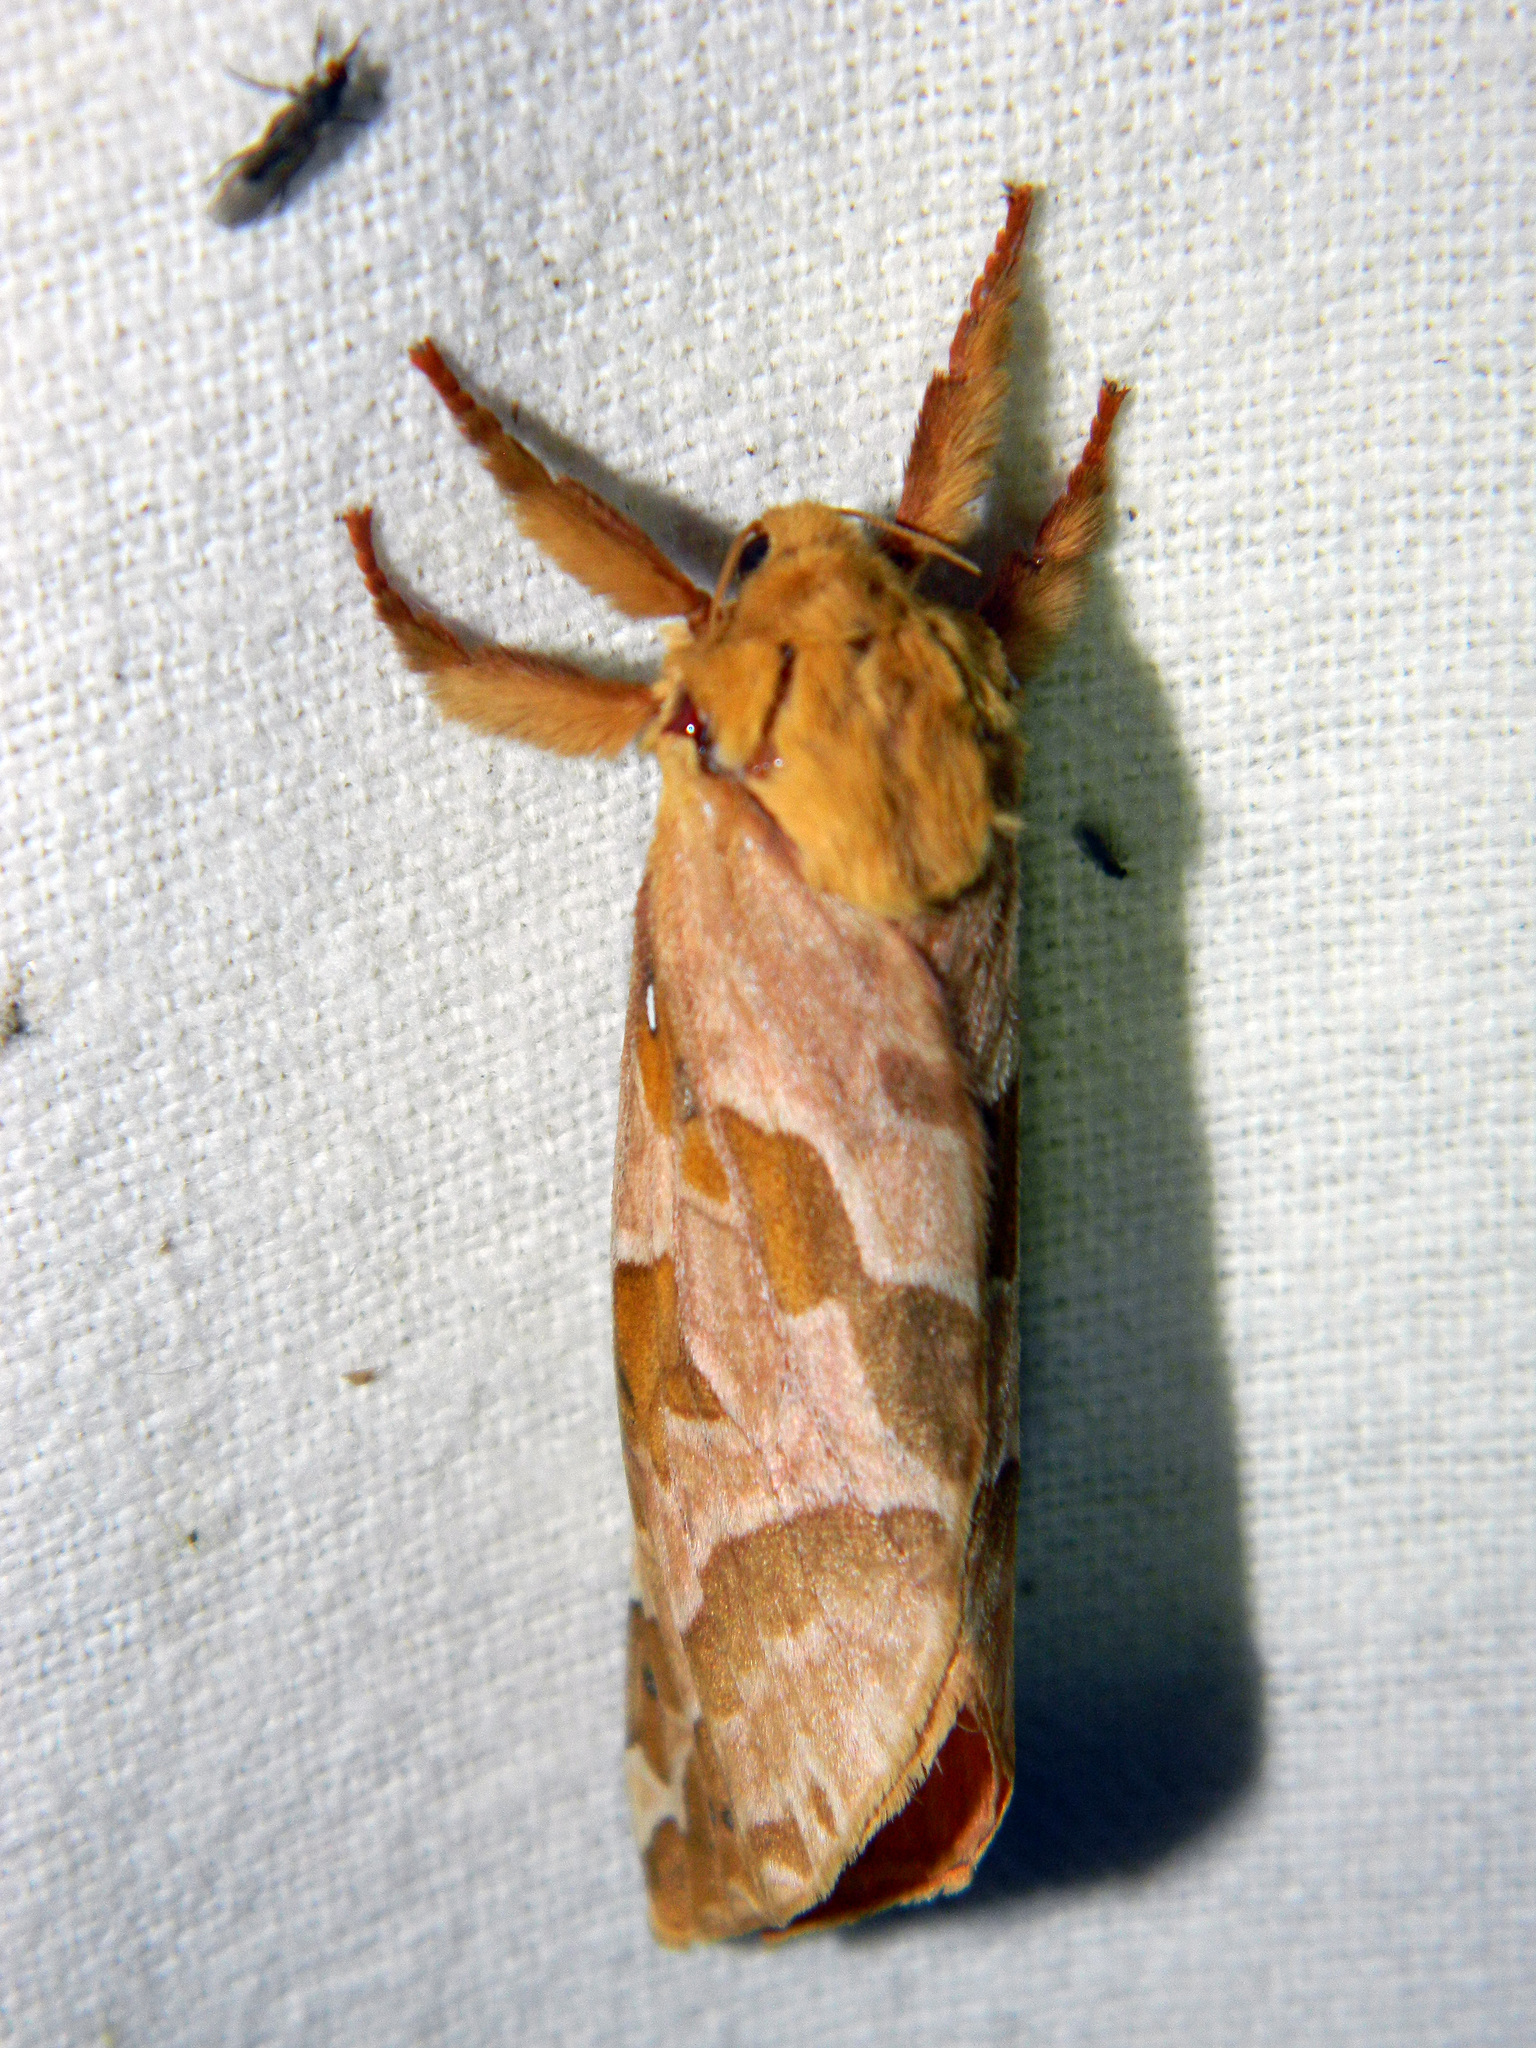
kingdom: Animalia
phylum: Arthropoda
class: Insecta
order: Lepidoptera
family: Hepialidae
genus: Sthenopis
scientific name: Sthenopis purpurascens
